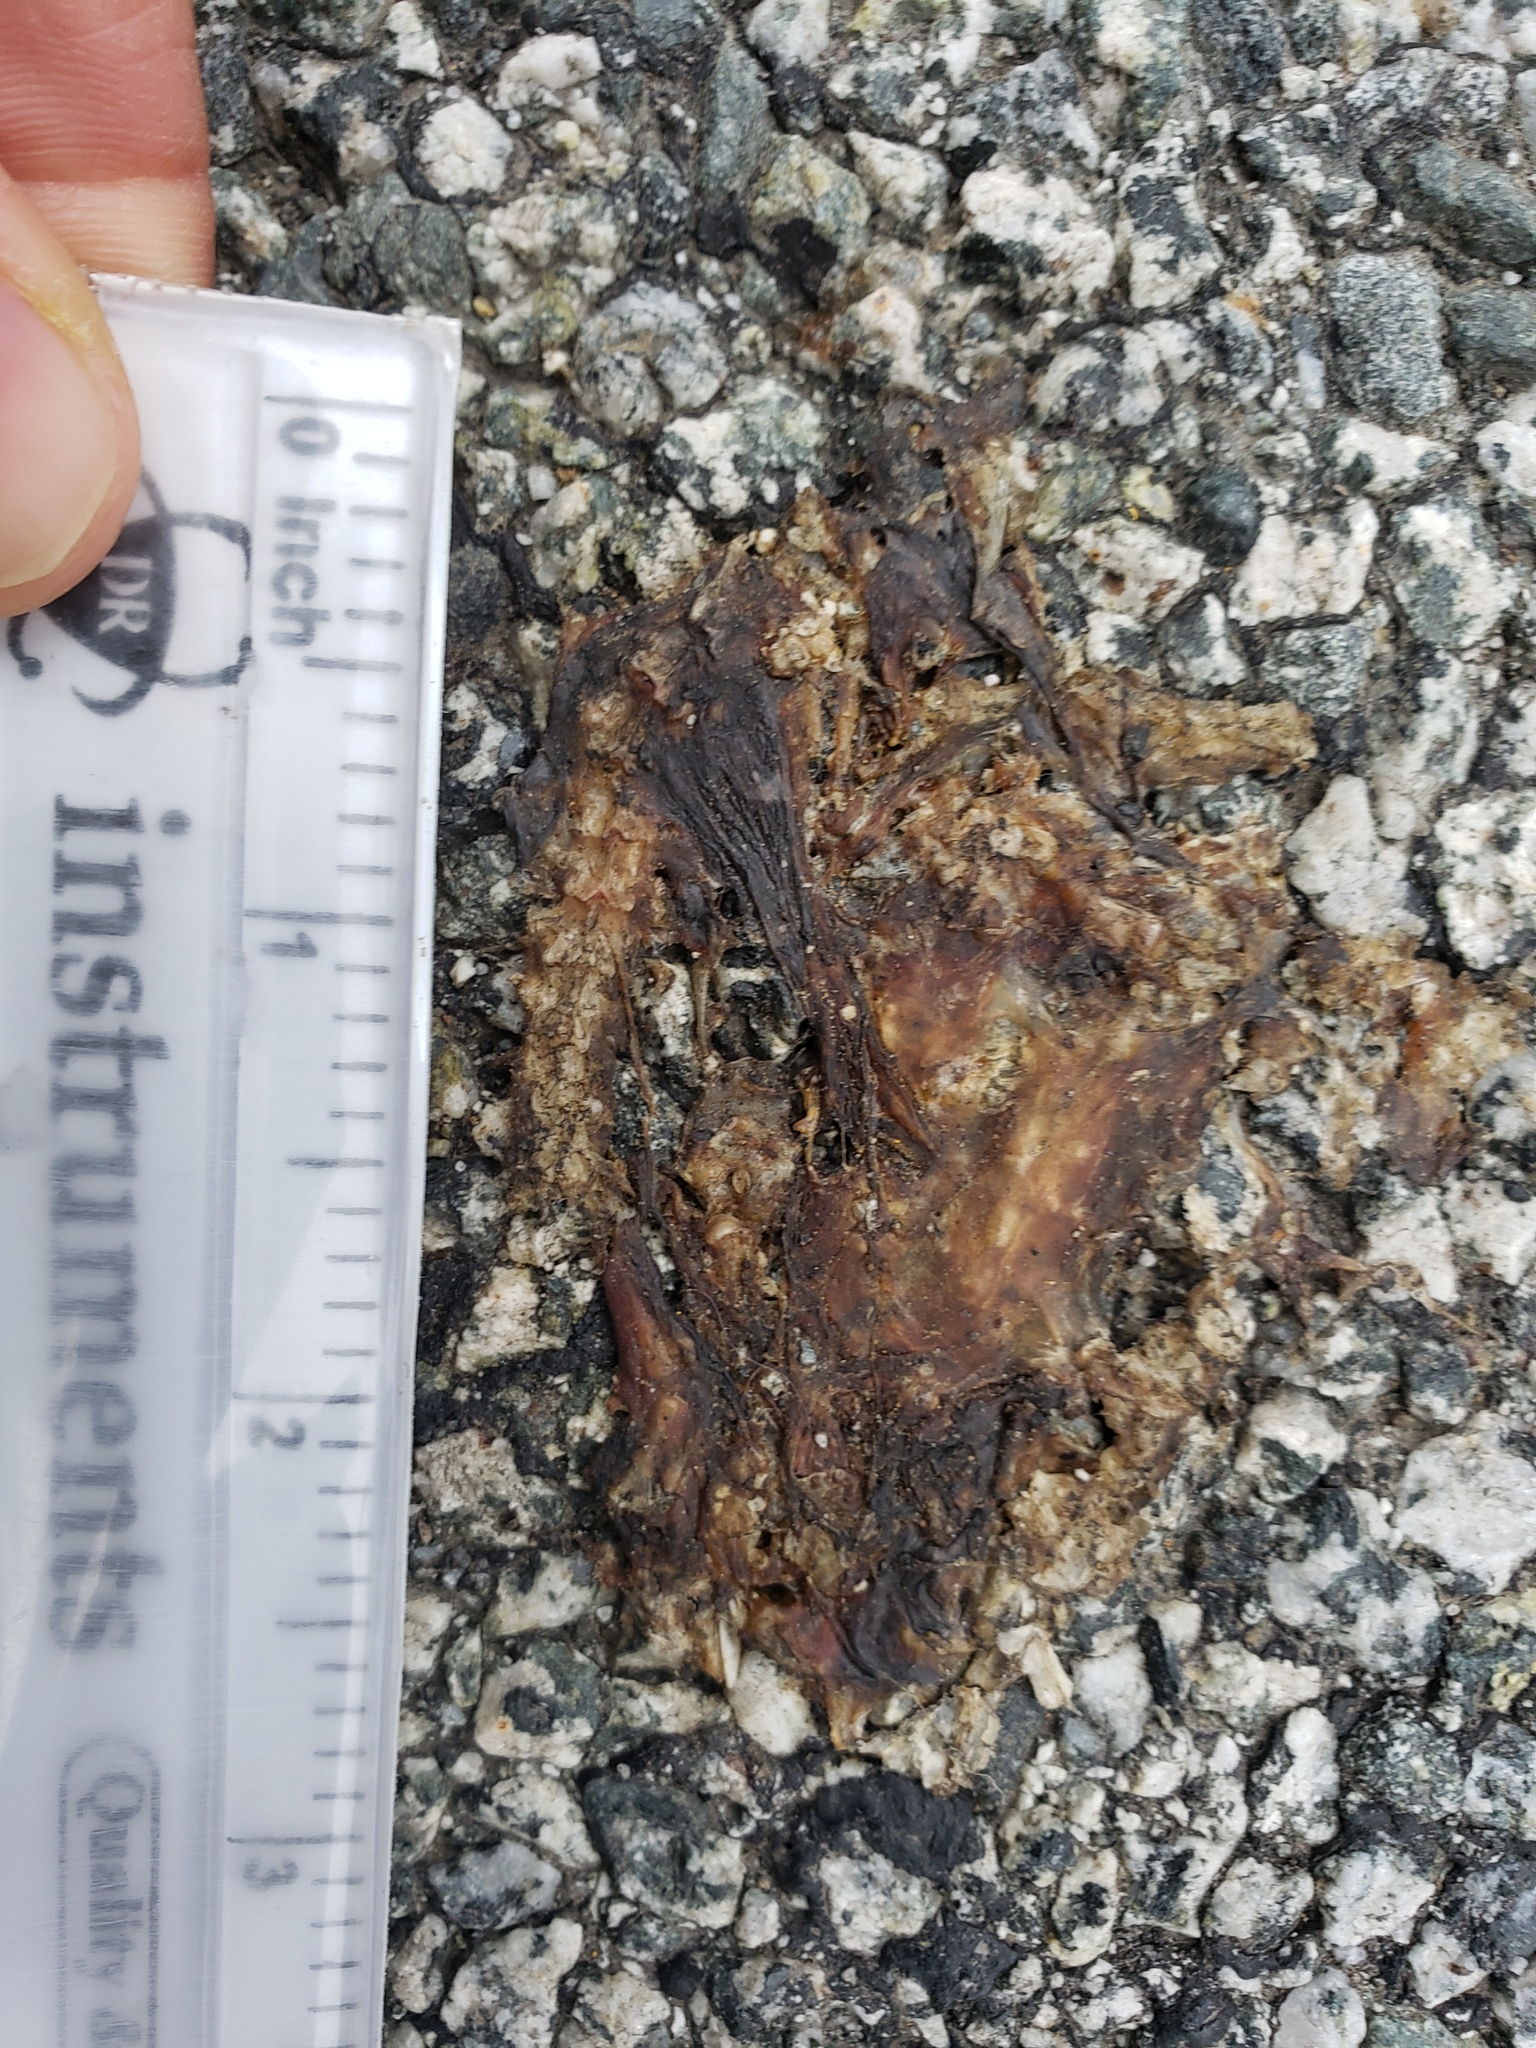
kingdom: Animalia
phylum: Chordata
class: Amphibia
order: Caudata
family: Salamandridae
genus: Taricha
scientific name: Taricha
